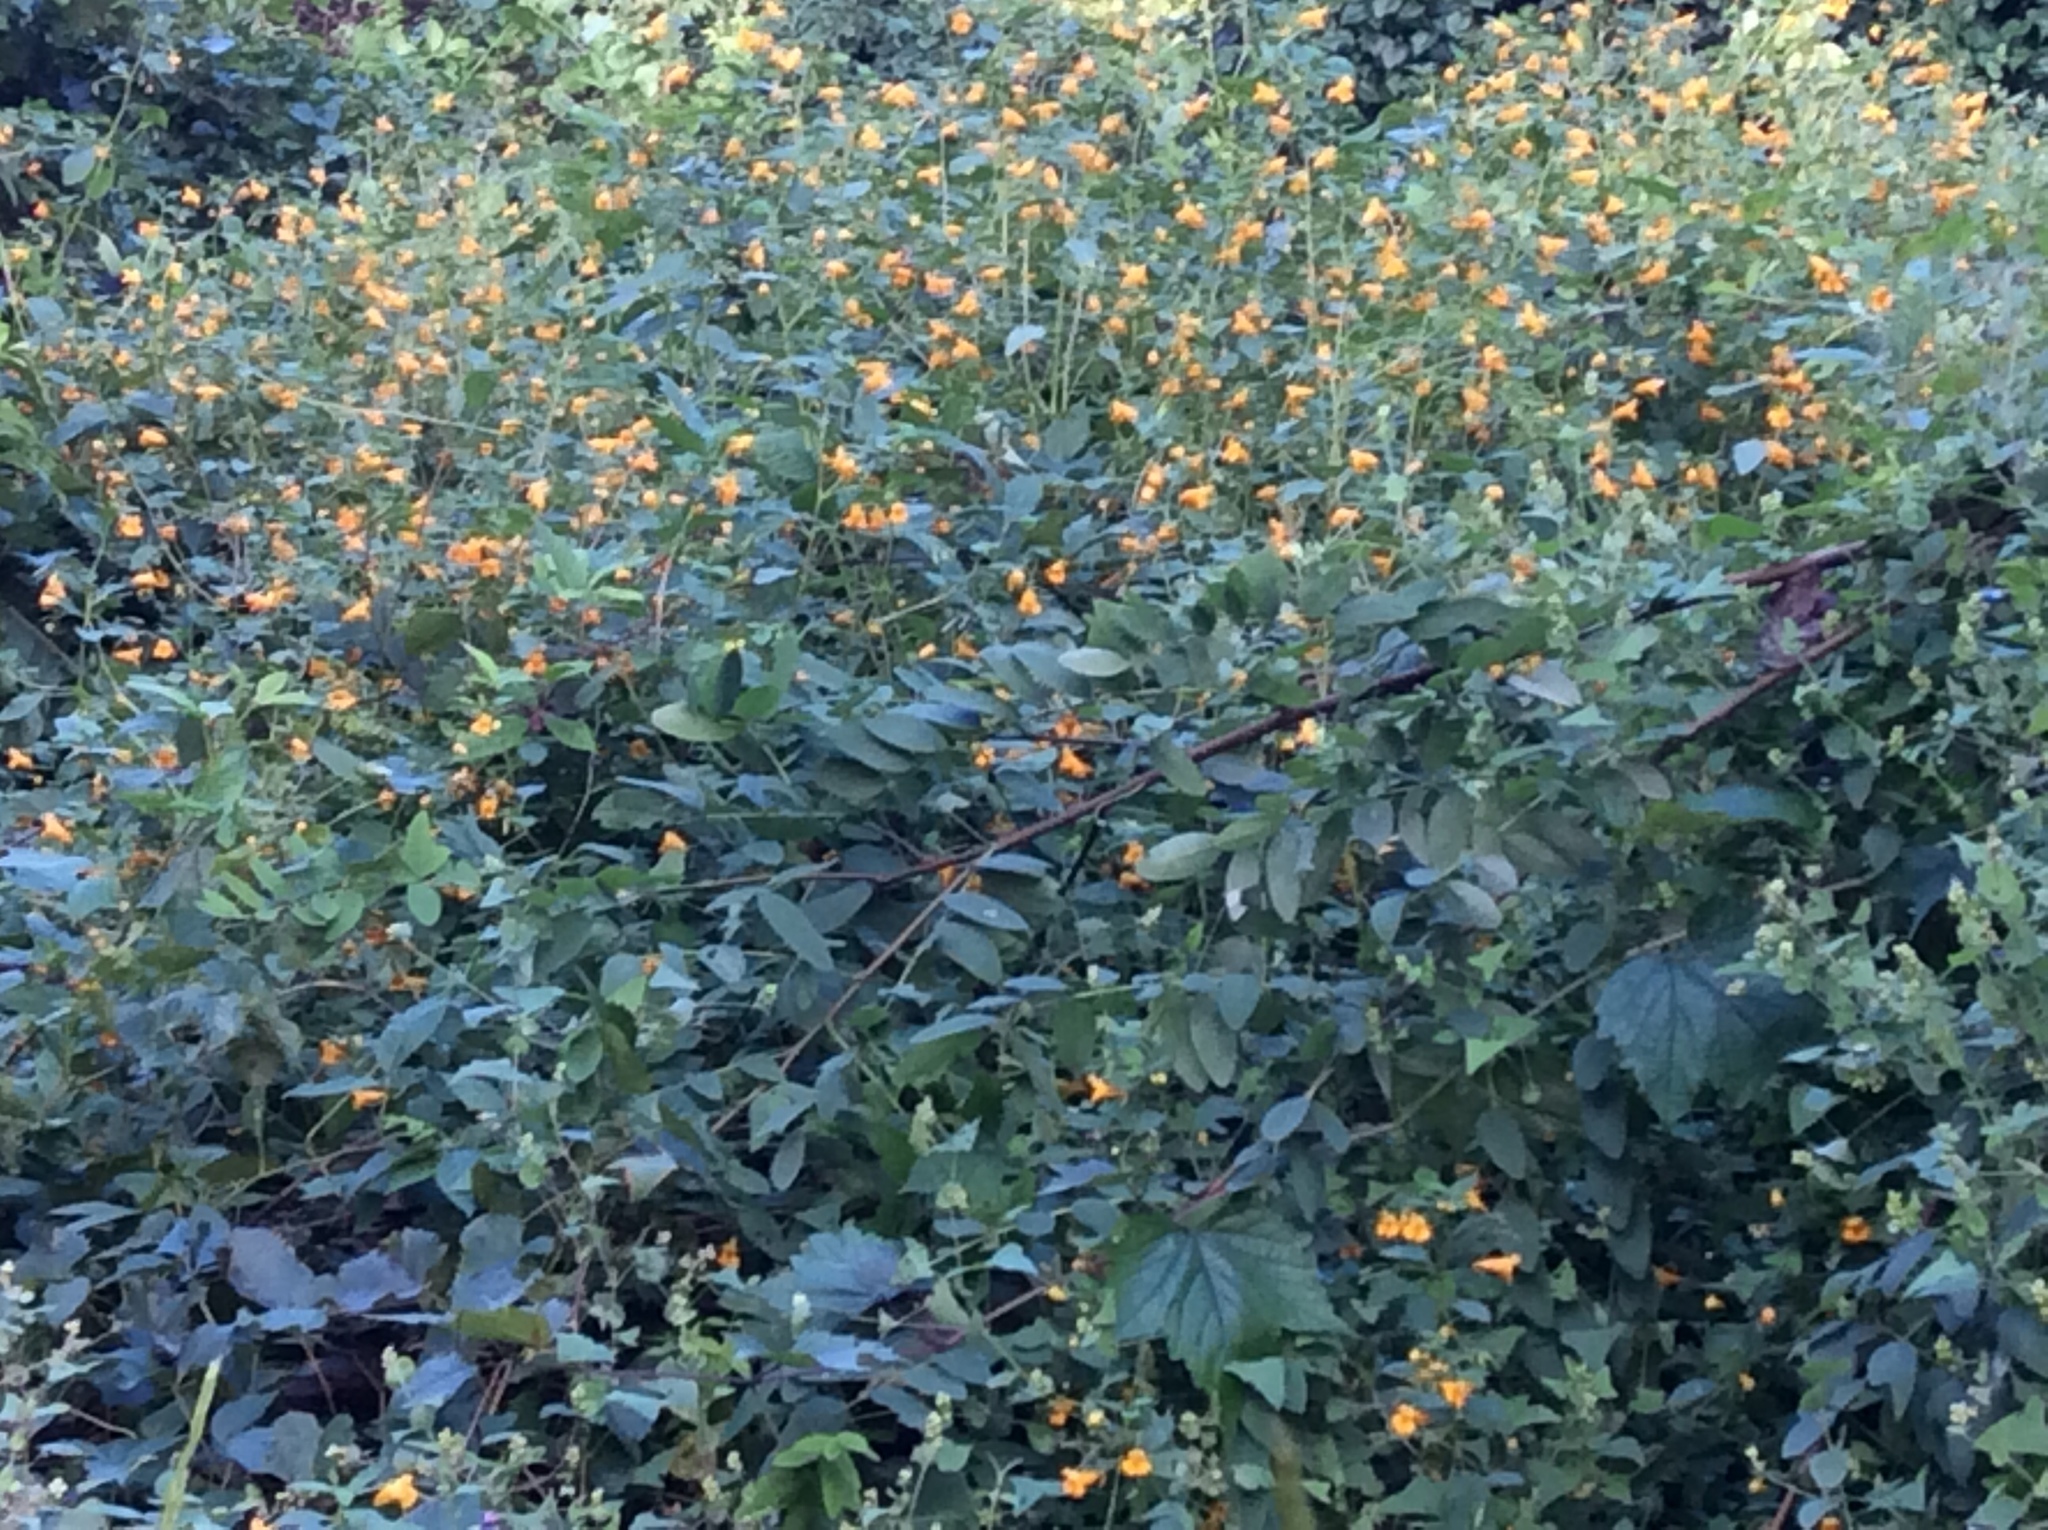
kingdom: Plantae
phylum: Tracheophyta
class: Magnoliopsida
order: Ericales
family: Balsaminaceae
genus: Impatiens
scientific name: Impatiens capensis
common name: Orange balsam
